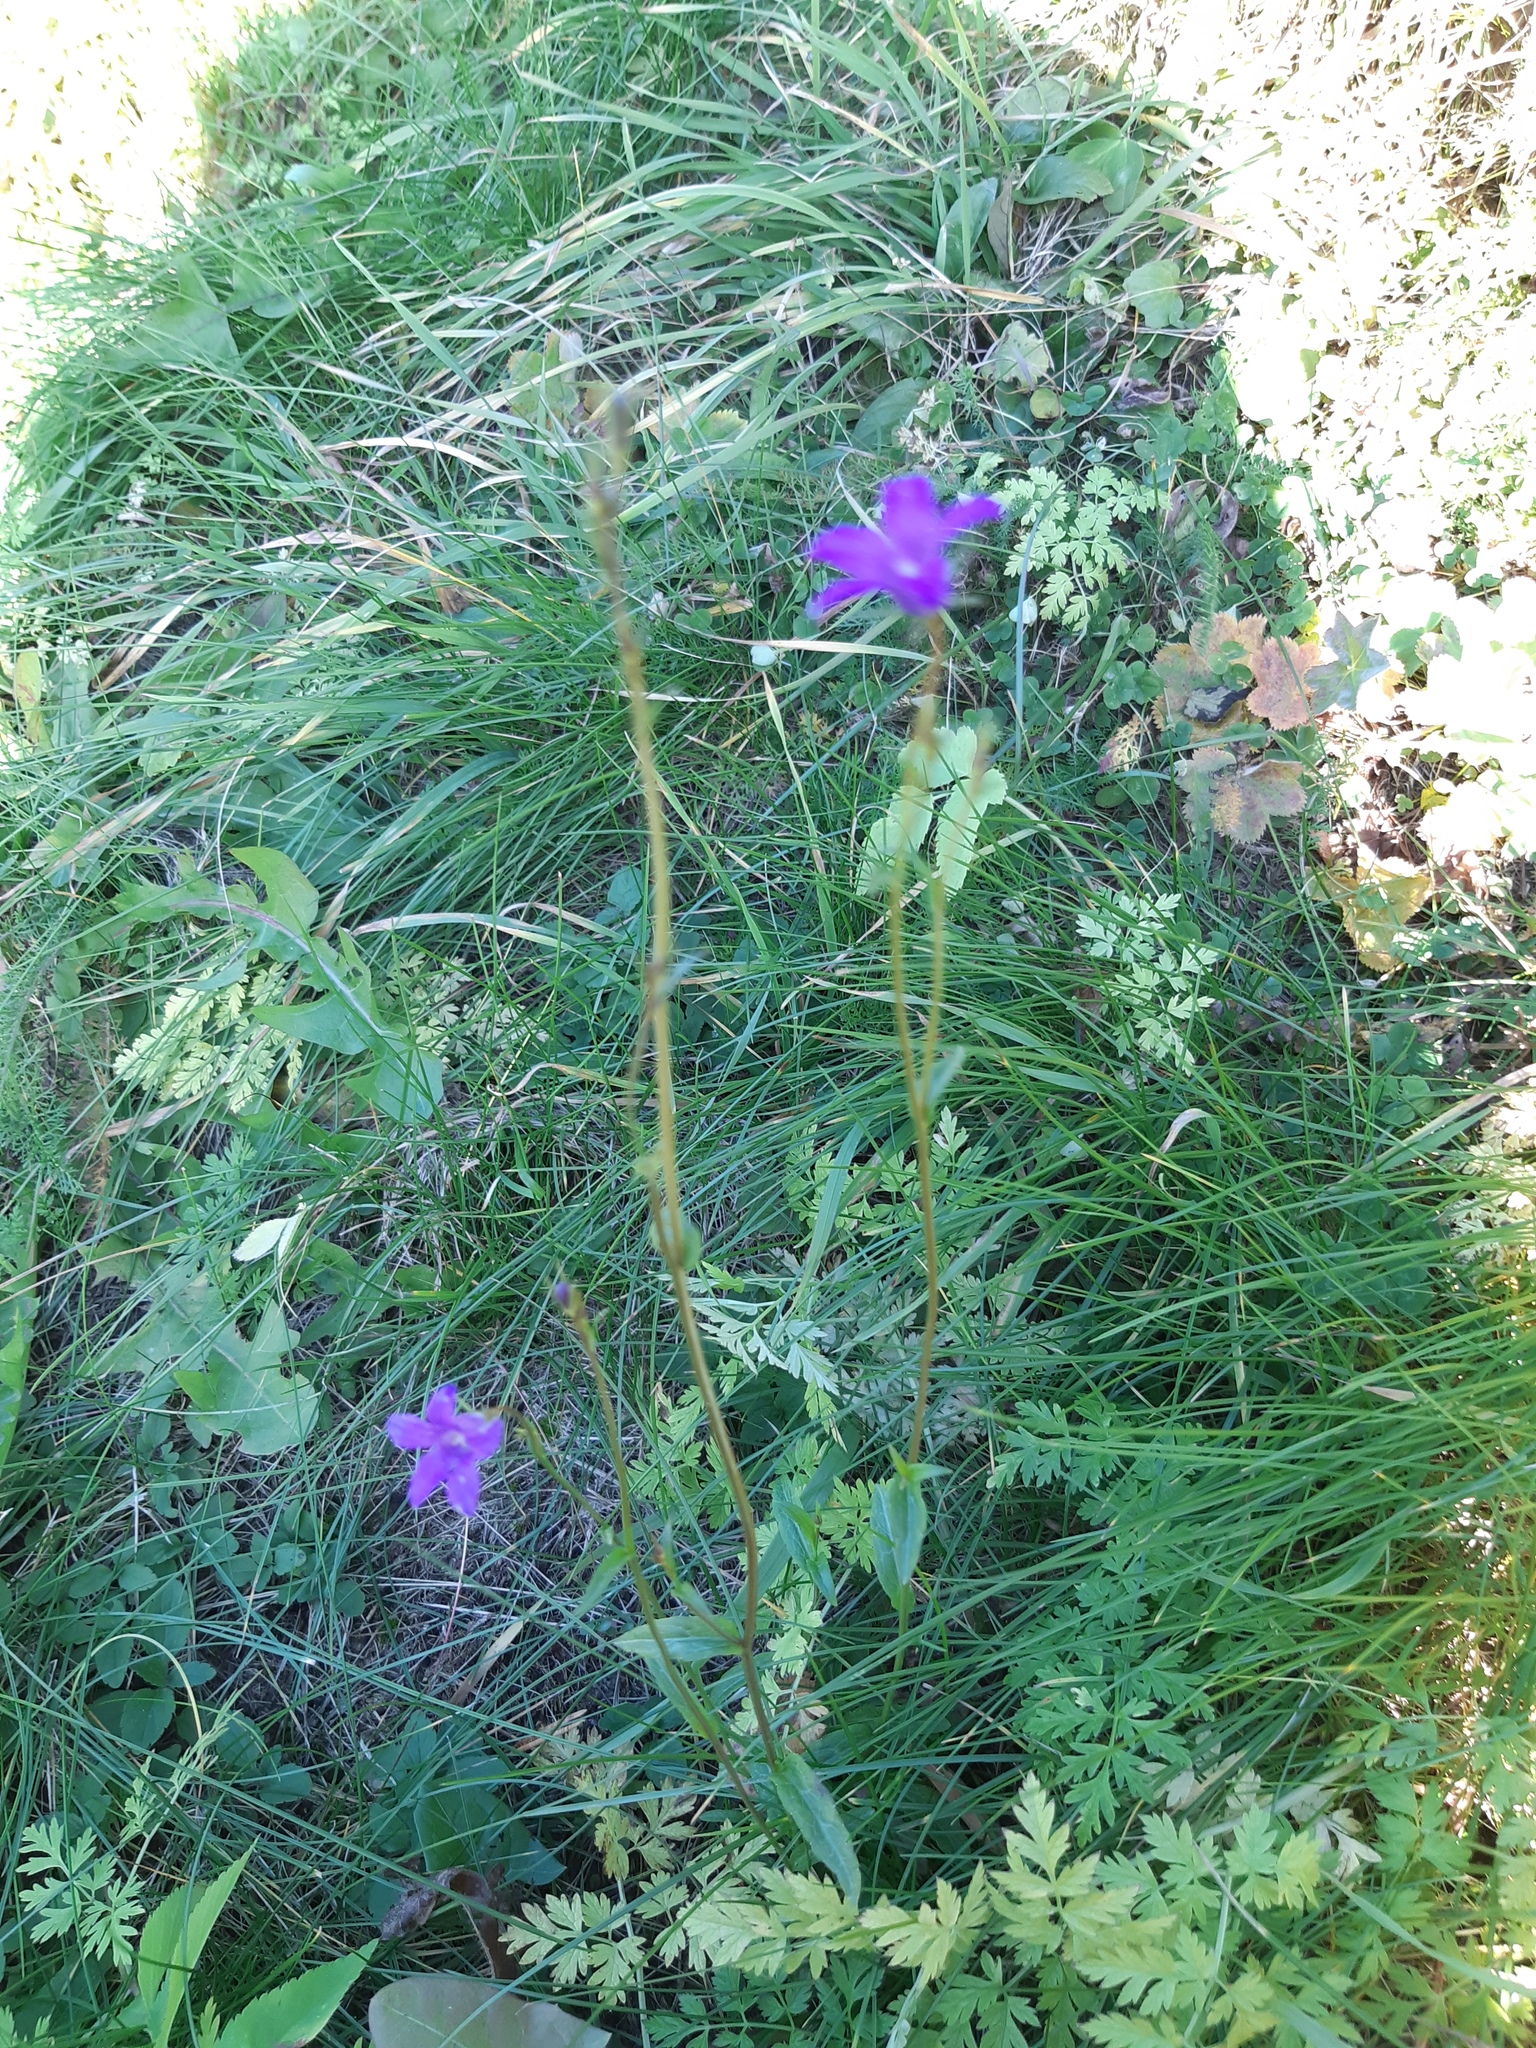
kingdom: Plantae
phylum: Tracheophyta
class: Magnoliopsida
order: Asterales
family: Campanulaceae
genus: Campanula
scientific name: Campanula patula
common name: Spreading bellflower
